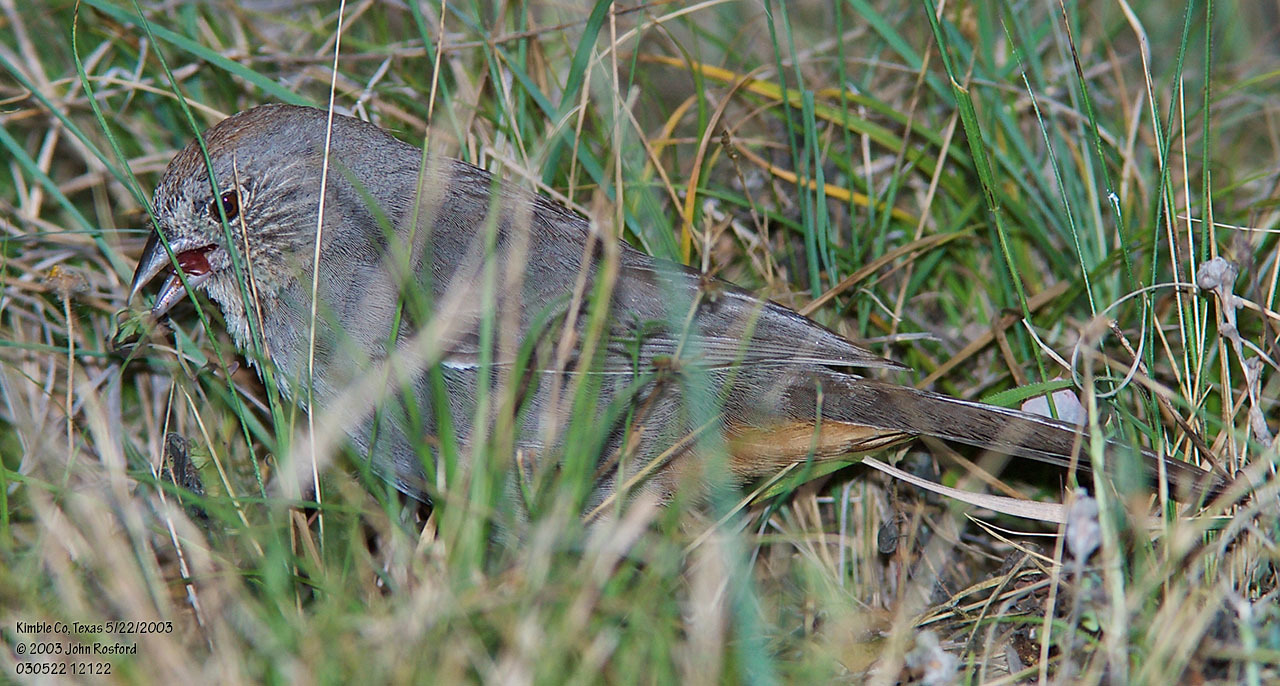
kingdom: Animalia
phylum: Chordata
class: Aves
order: Passeriformes
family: Passerellidae
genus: Melozone
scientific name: Melozone fusca
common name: Canyon towhee
